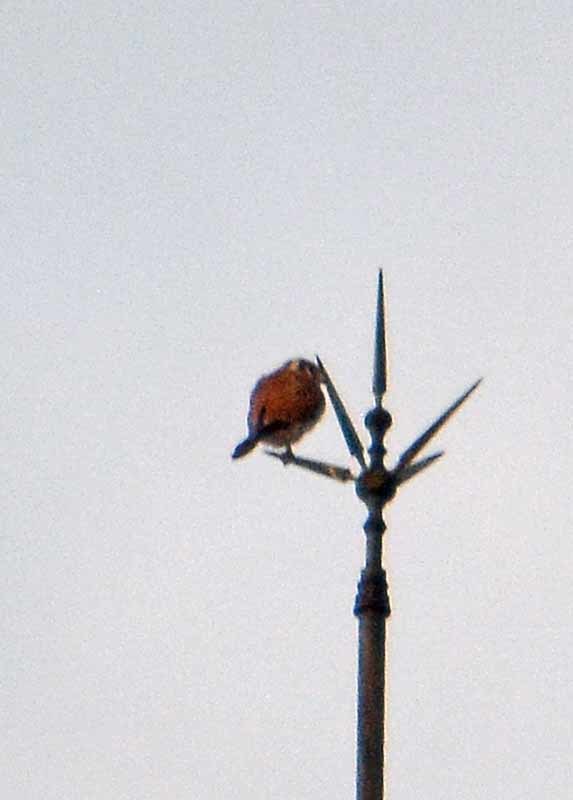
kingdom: Animalia
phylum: Chordata
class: Aves
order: Falconiformes
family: Falconidae
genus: Falco
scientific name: Falco sparverius
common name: American kestrel
